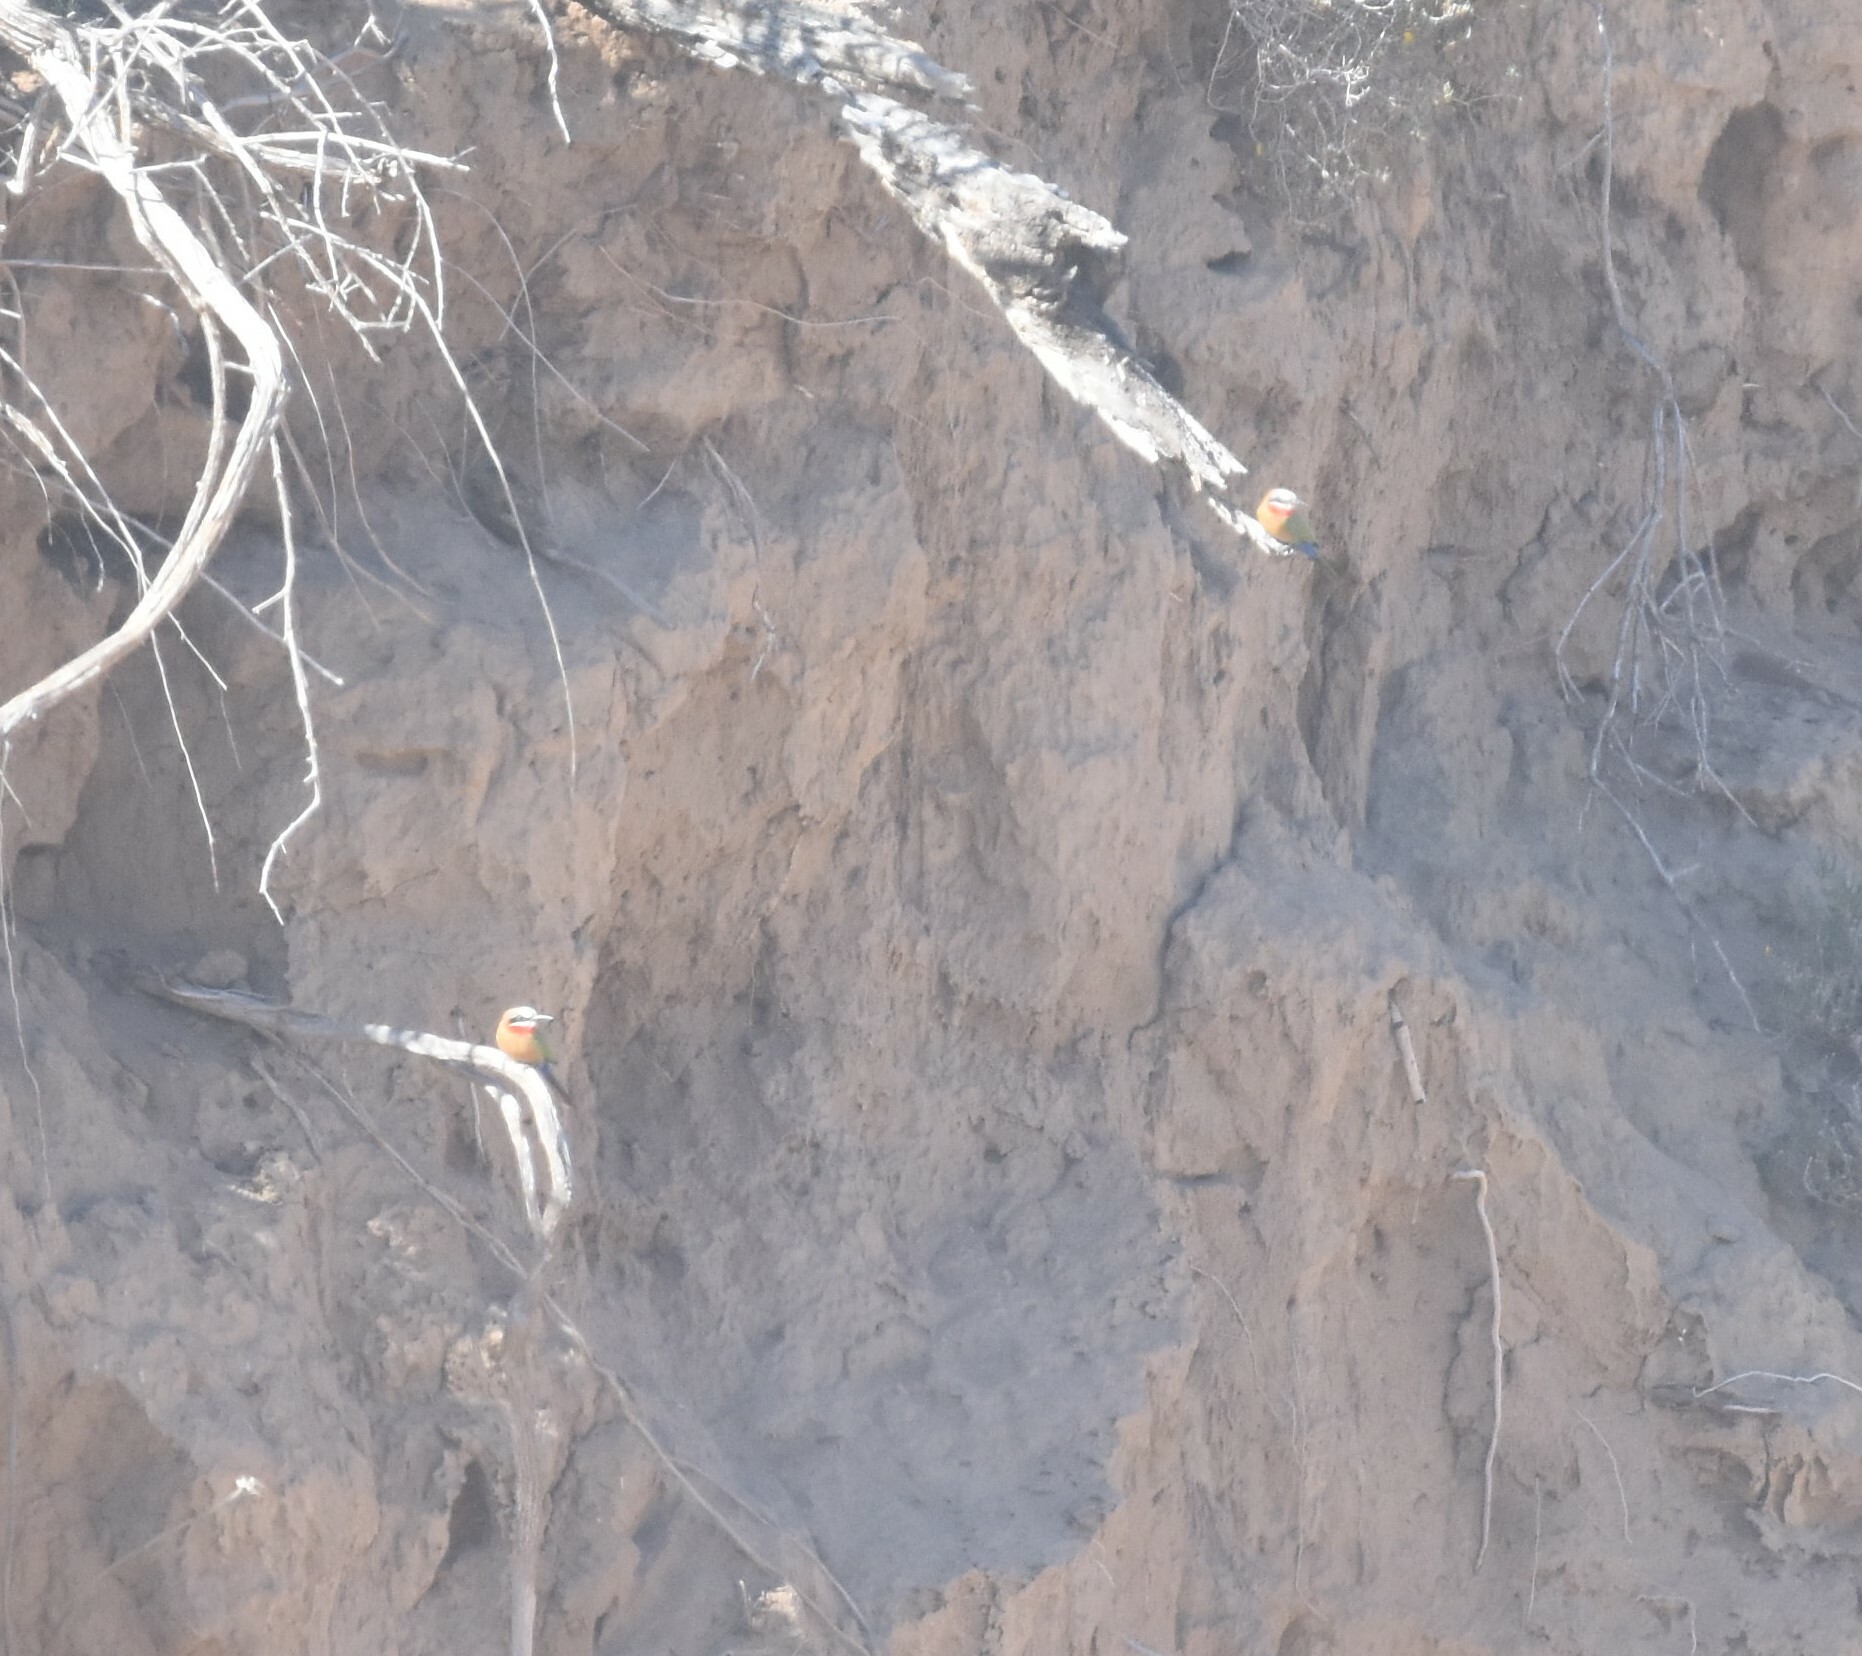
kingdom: Animalia
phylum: Chordata
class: Aves
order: Coraciiformes
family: Meropidae
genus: Merops
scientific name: Merops bullockoides
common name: White-fronted bee-eater
